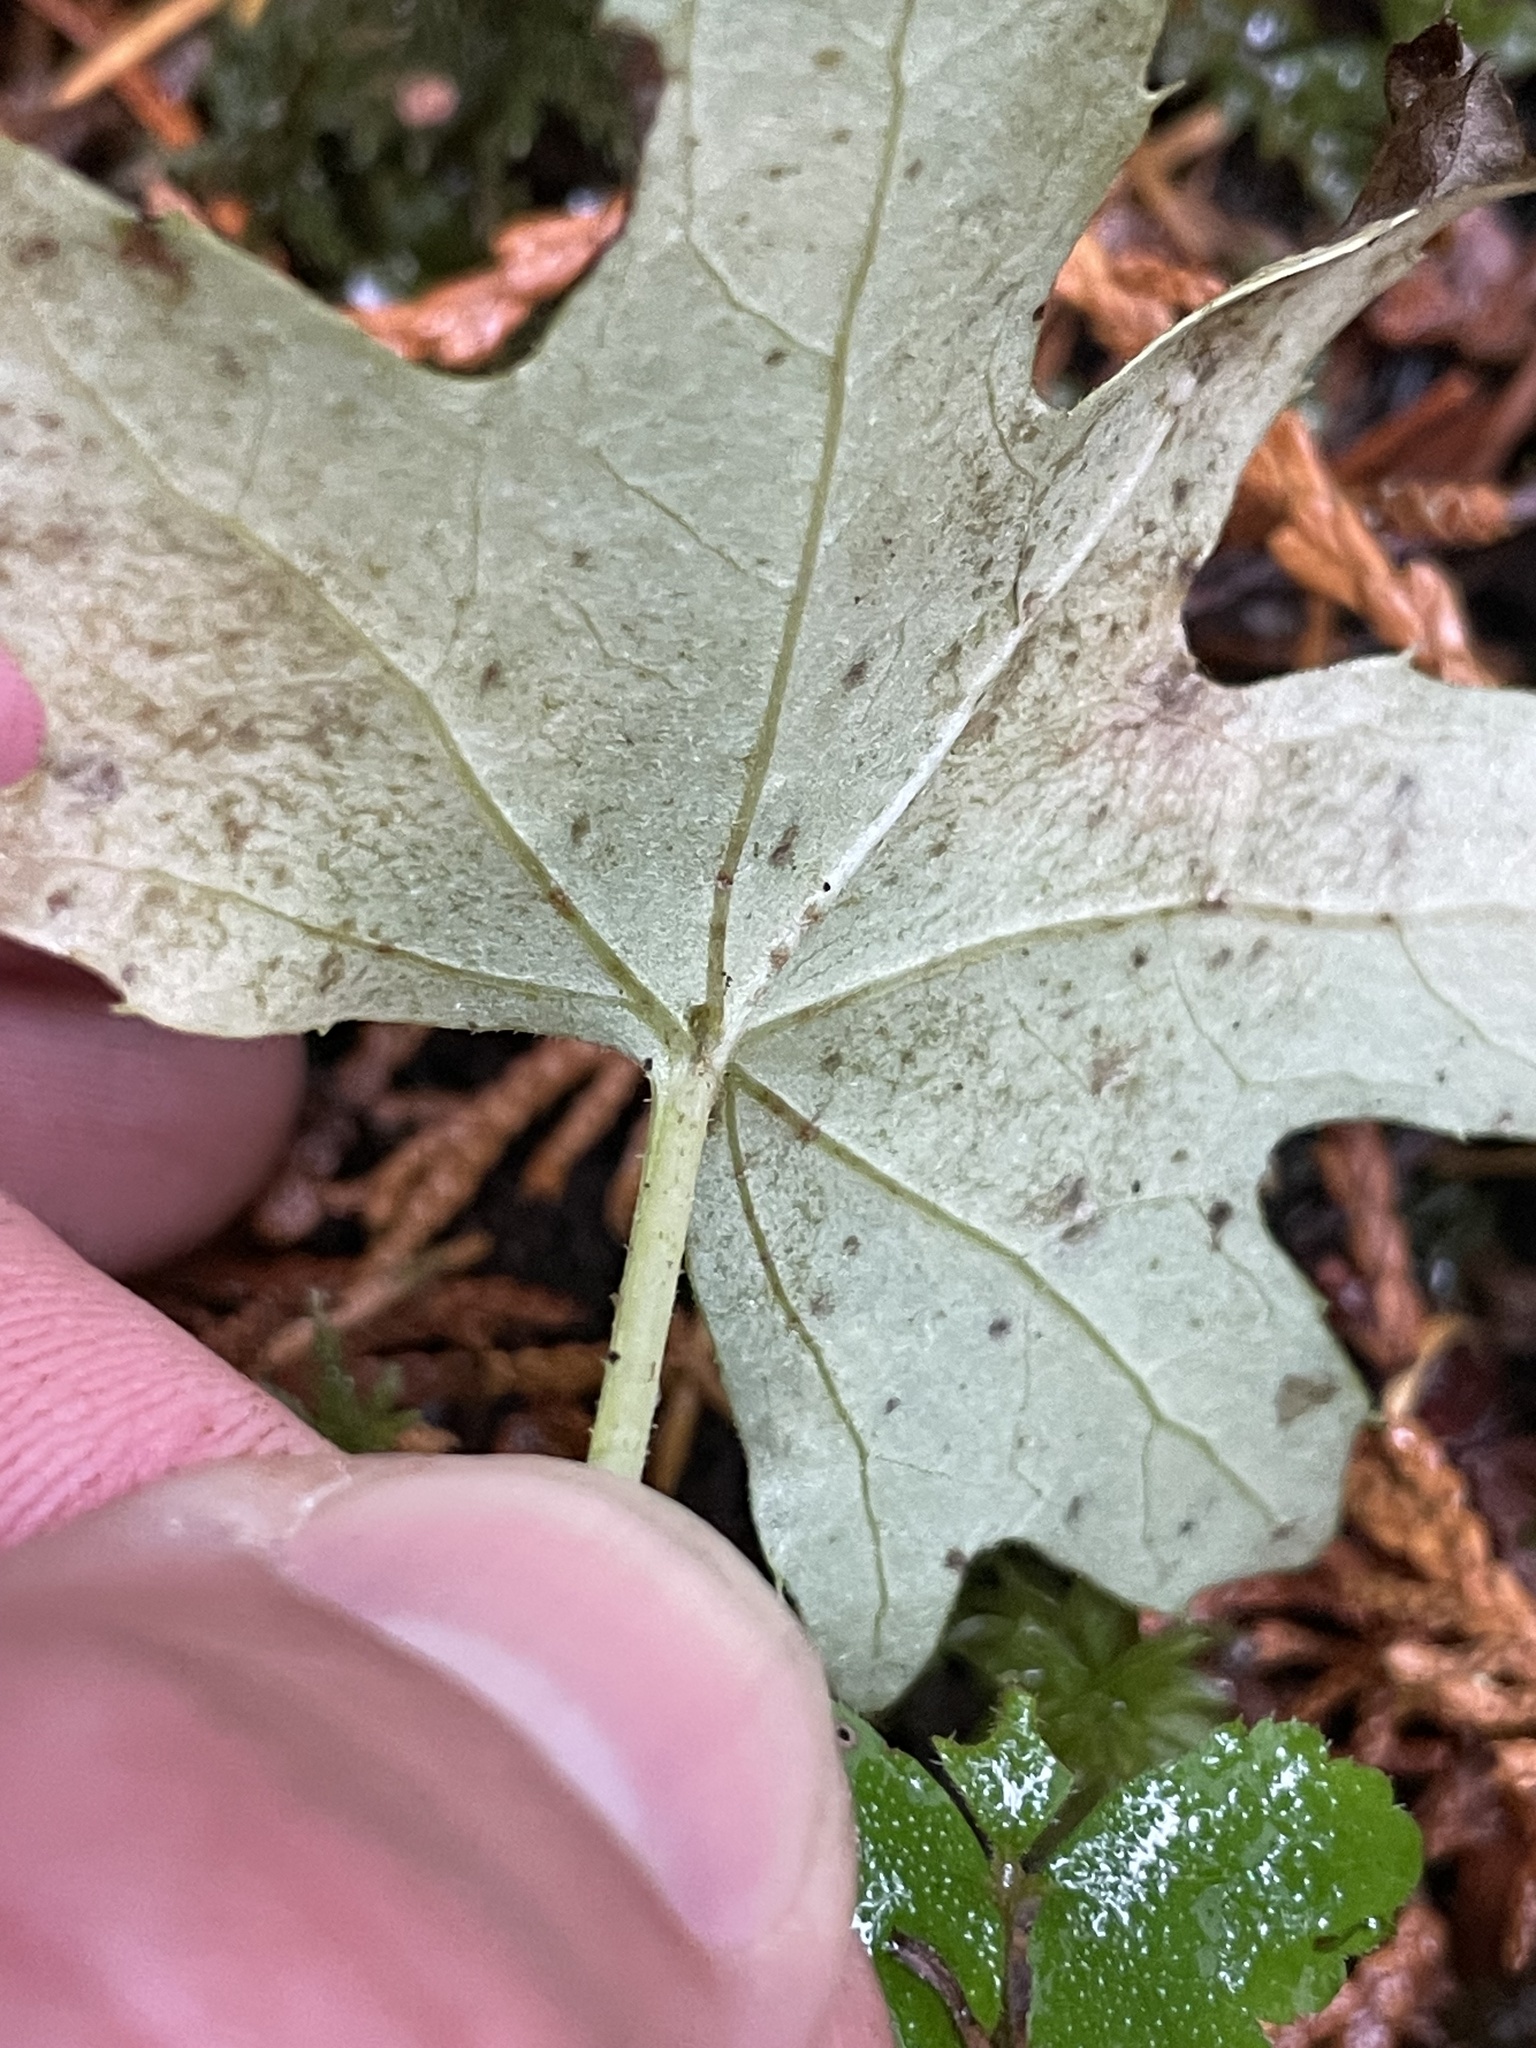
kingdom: Plantae
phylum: Tracheophyta
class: Magnoliopsida
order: Asterales
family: Asteraceae
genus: Petasites
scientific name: Petasites frigidus
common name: Arctic butterbur
